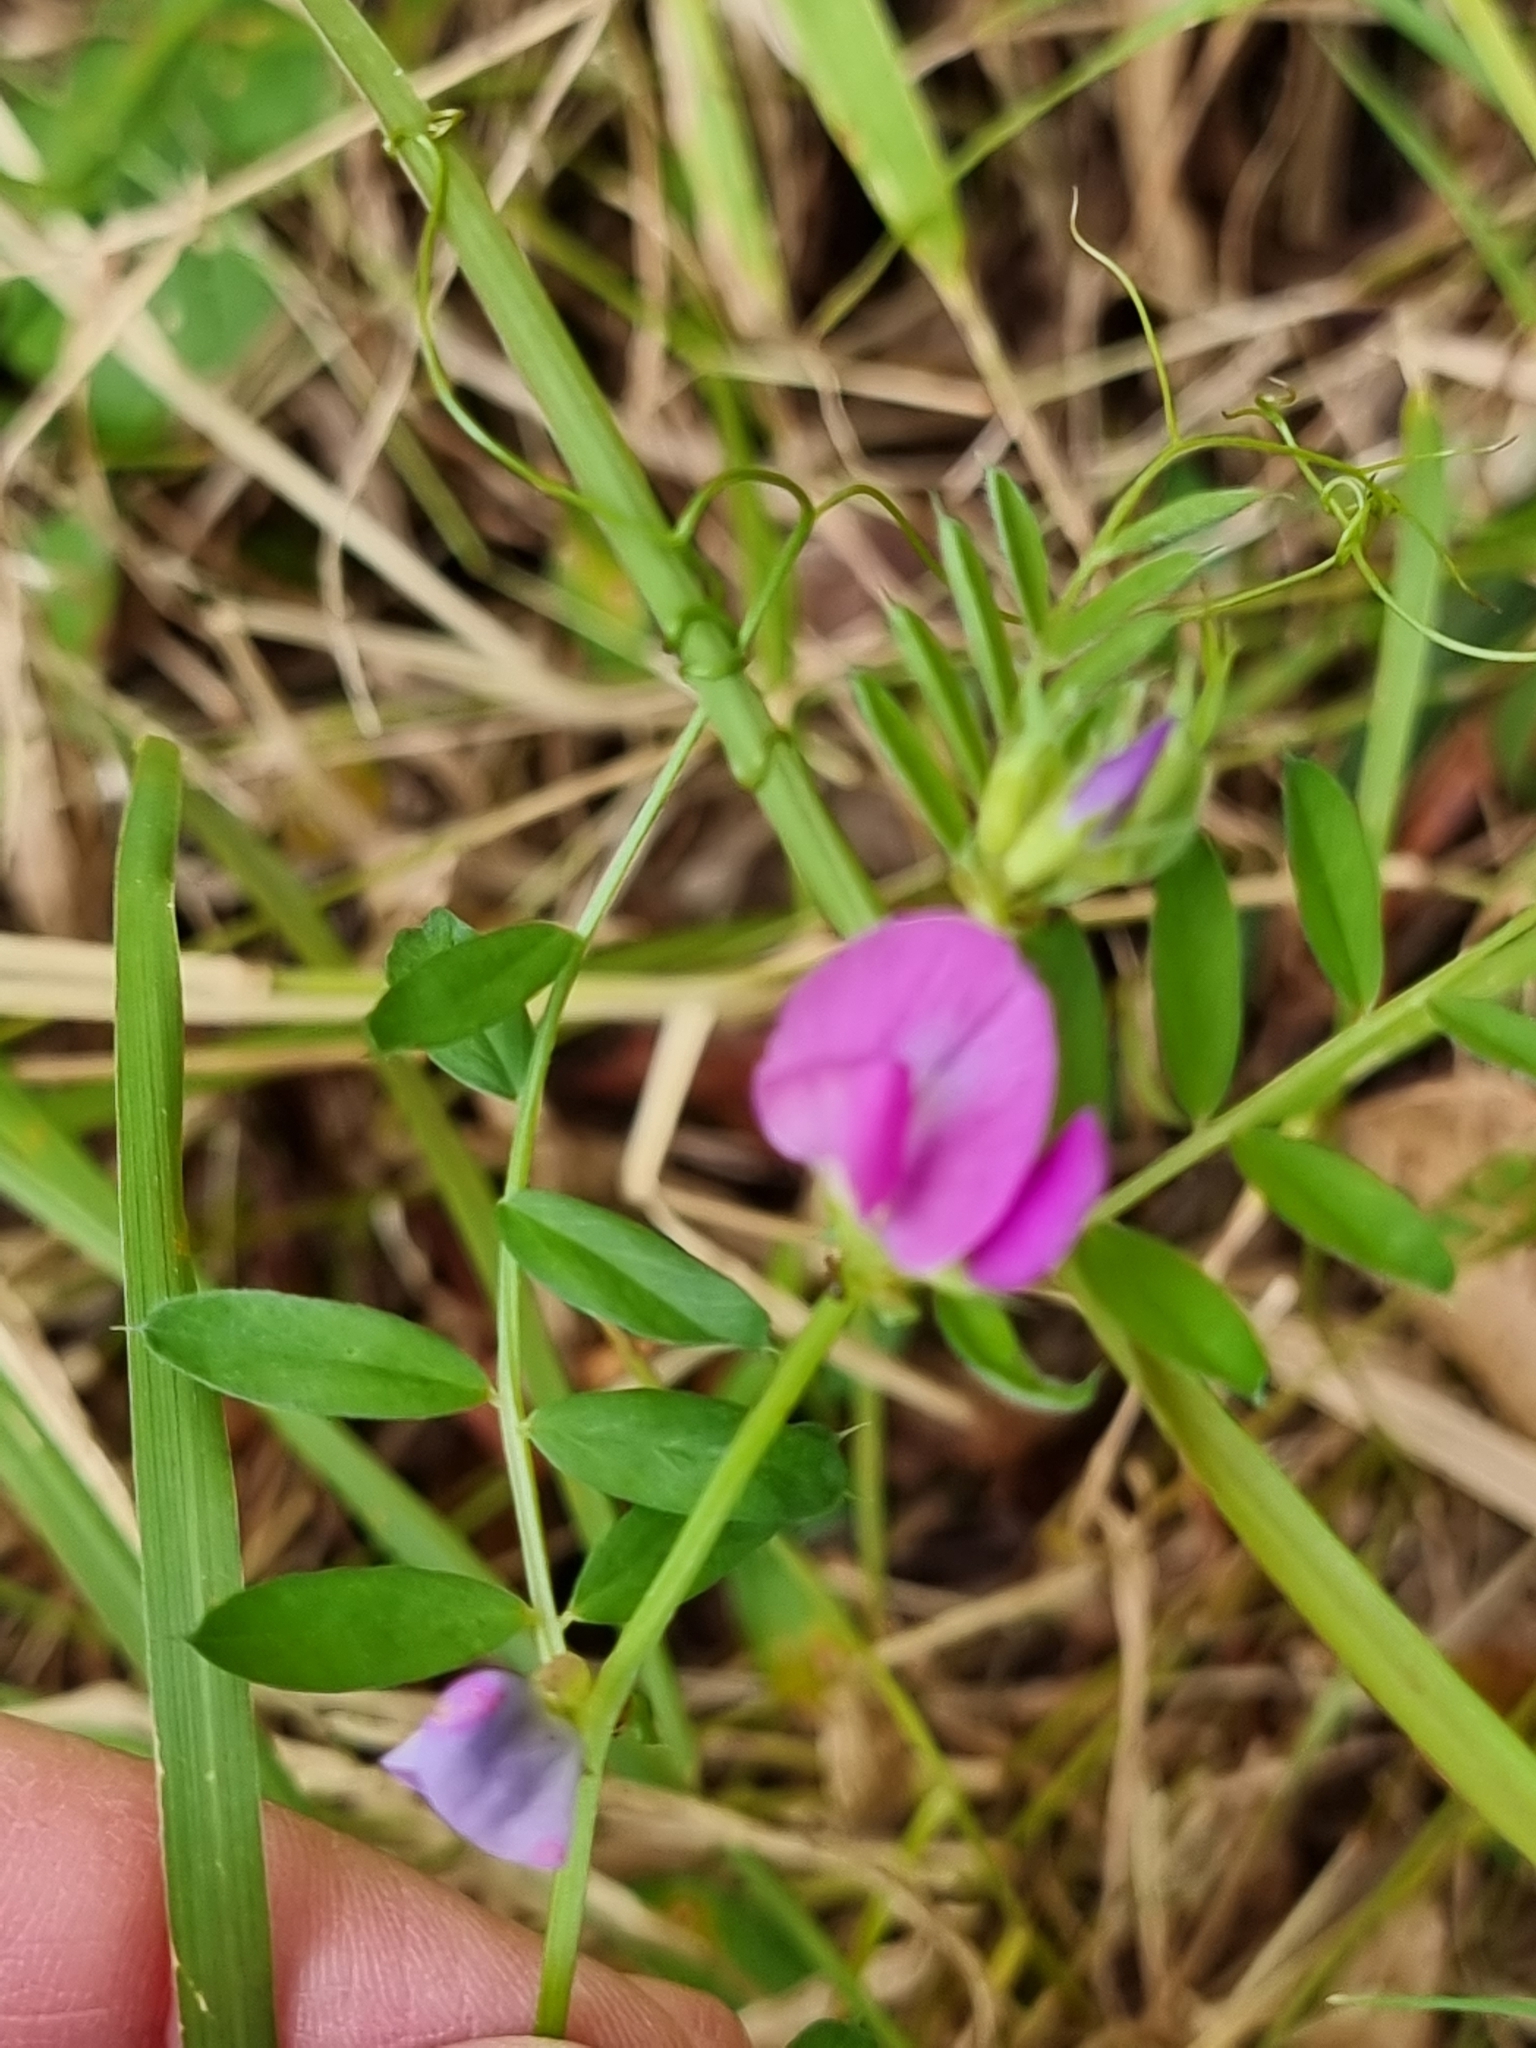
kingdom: Plantae
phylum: Tracheophyta
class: Magnoliopsida
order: Fabales
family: Fabaceae
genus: Vicia
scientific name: Vicia sativa
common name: Garden vetch
